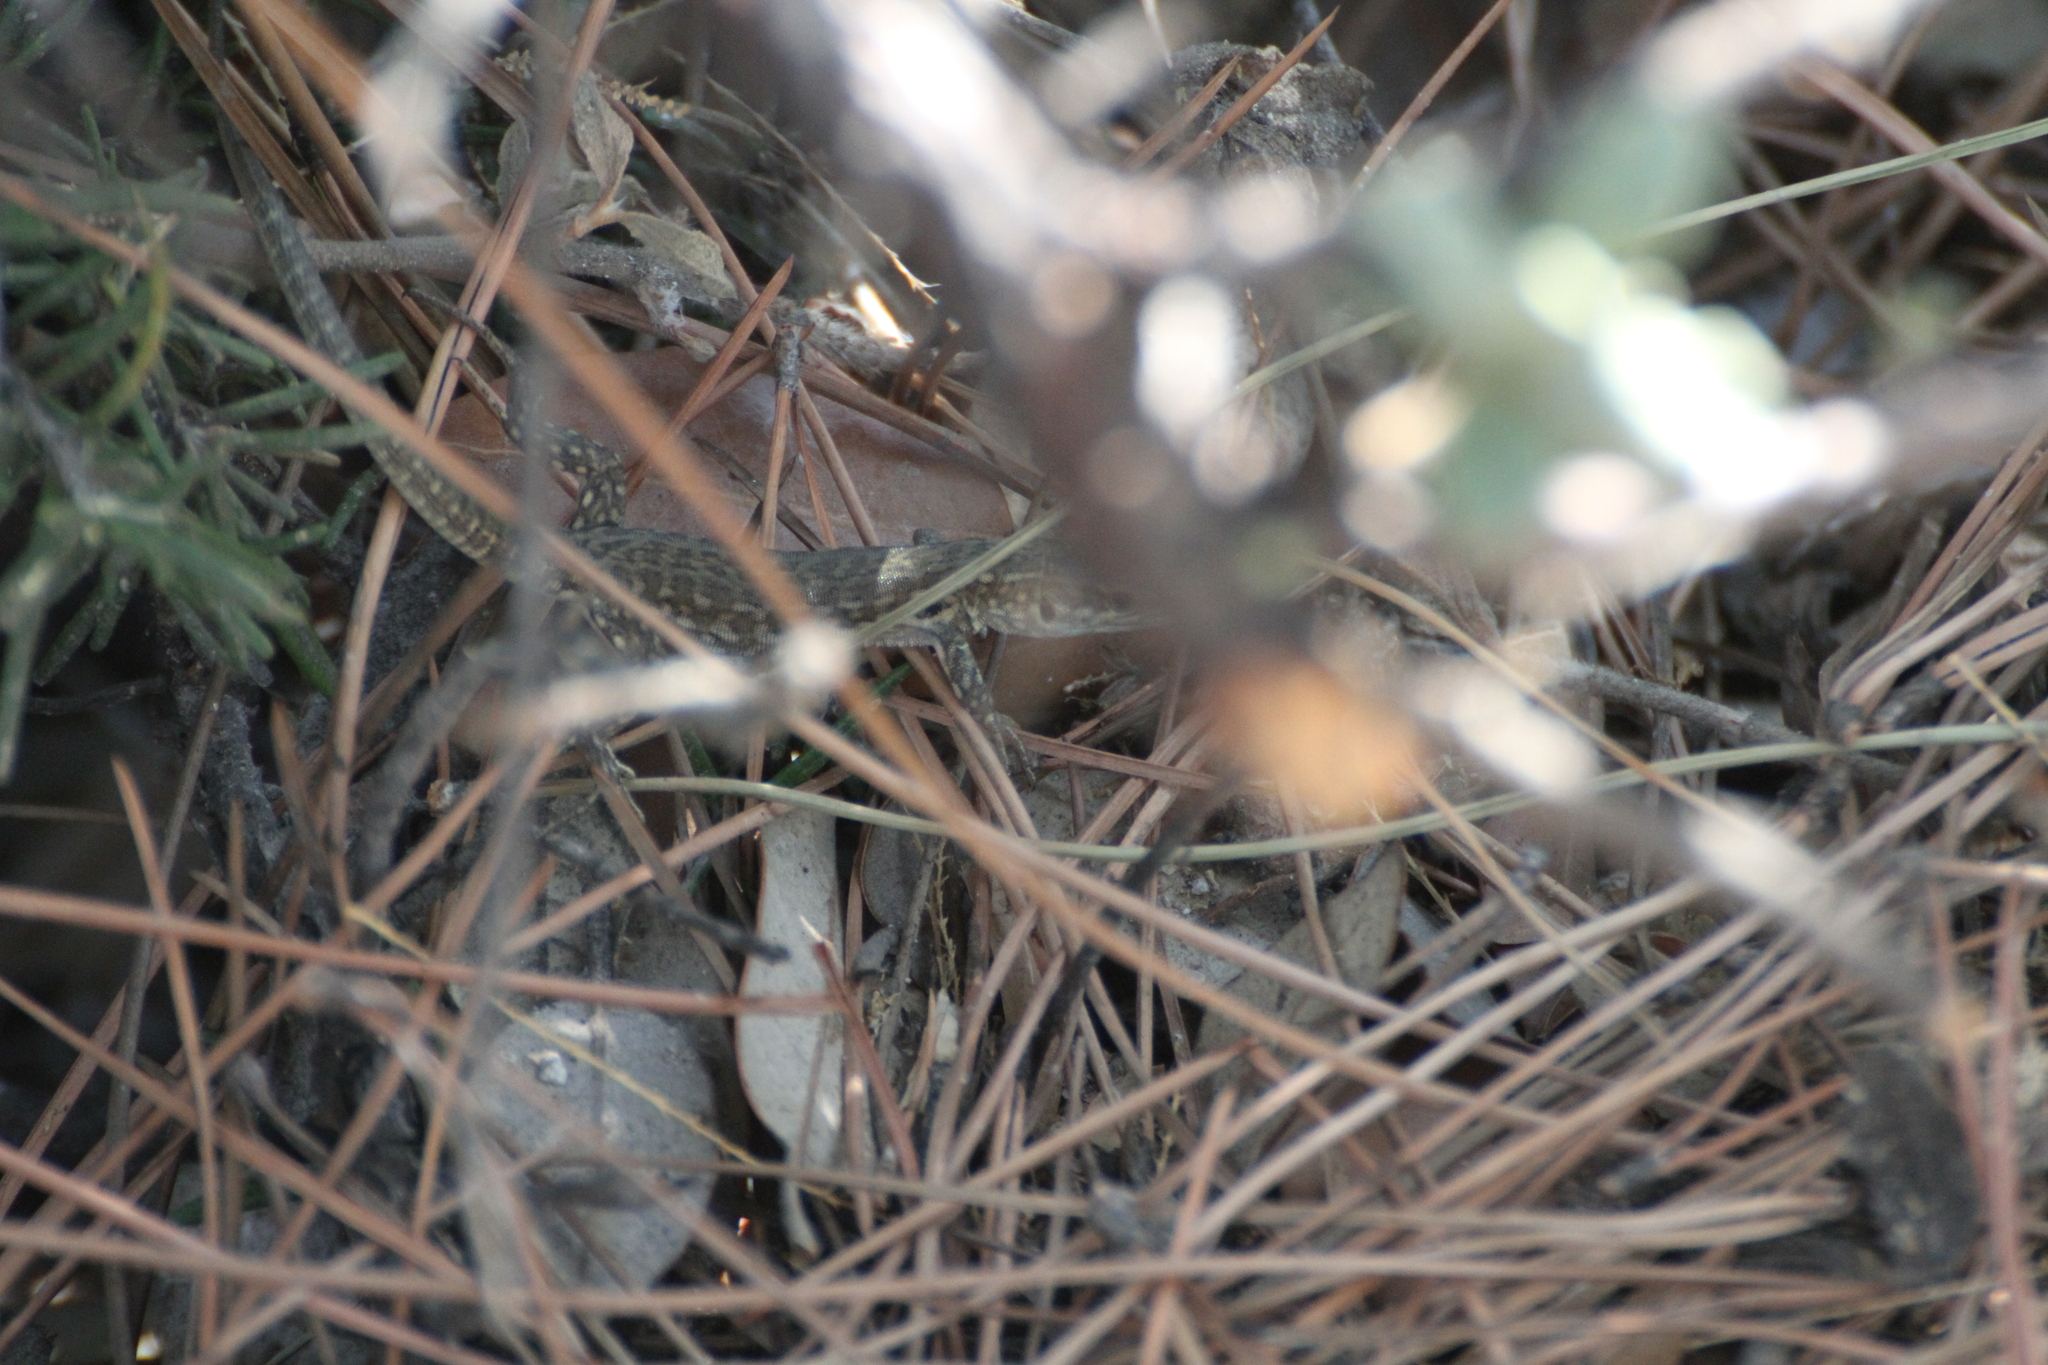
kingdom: Animalia
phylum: Chordata
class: Squamata
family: Lacertidae
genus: Podarcis
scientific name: Podarcis siculus
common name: Italian wall lizard
